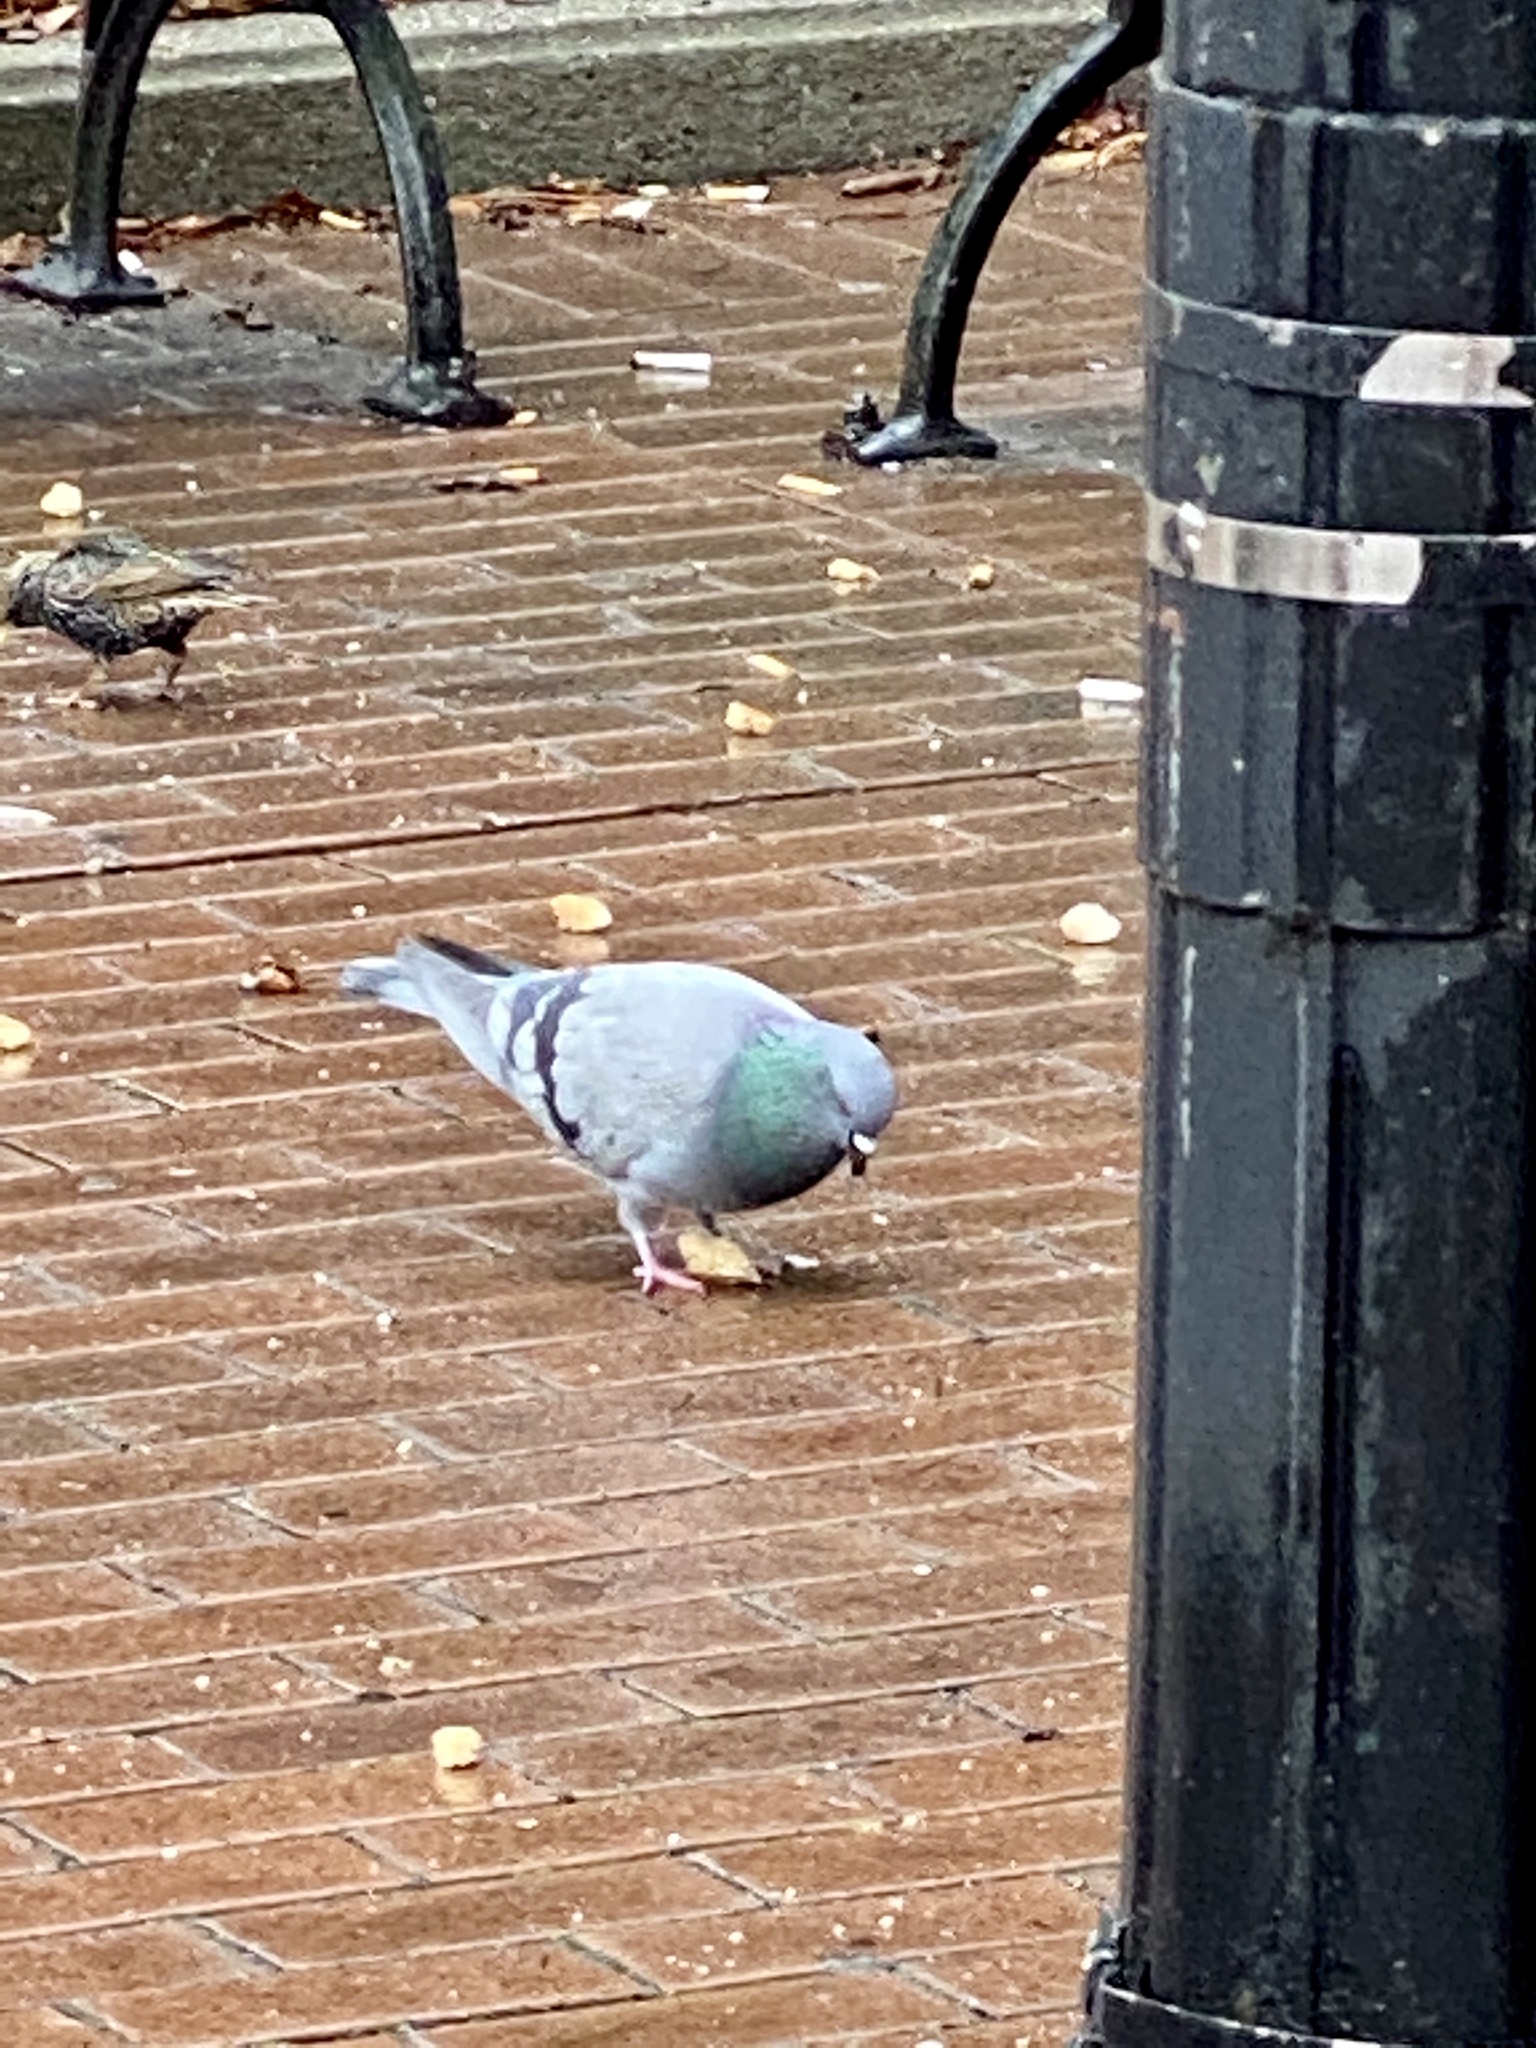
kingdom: Animalia
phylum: Chordata
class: Aves
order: Columbiformes
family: Columbidae
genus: Columba
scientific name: Columba livia
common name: Rock pigeon
